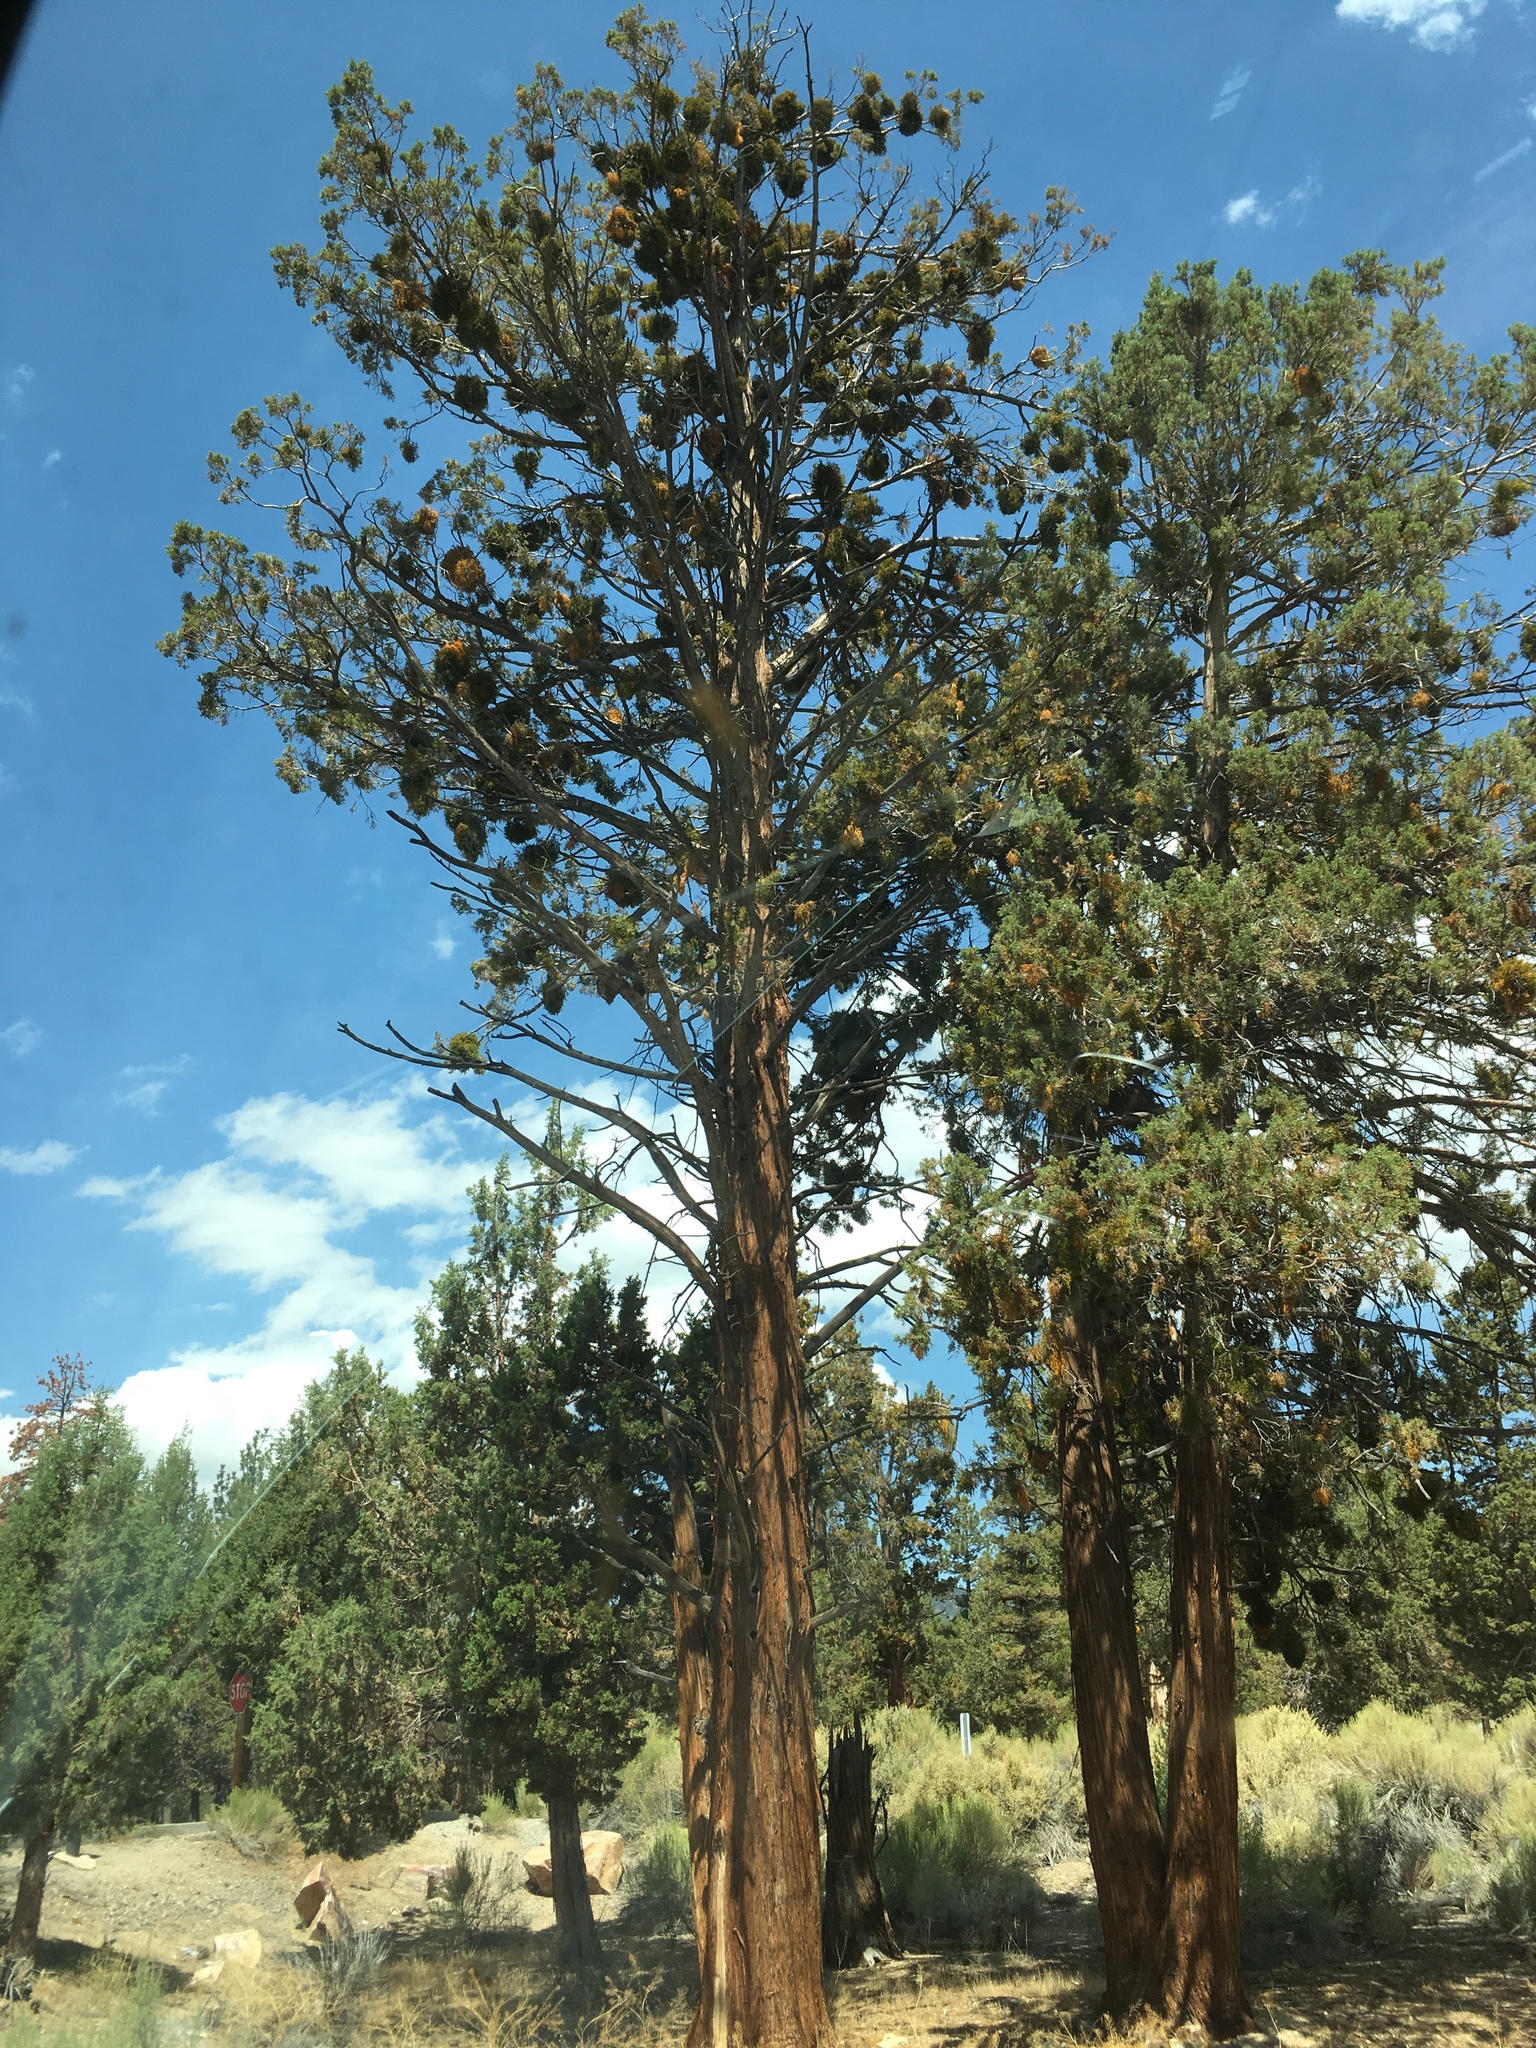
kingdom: Plantae
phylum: Tracheophyta
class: Magnoliopsida
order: Santalales
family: Viscaceae
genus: Phoradendron
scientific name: Phoradendron juniperinum
